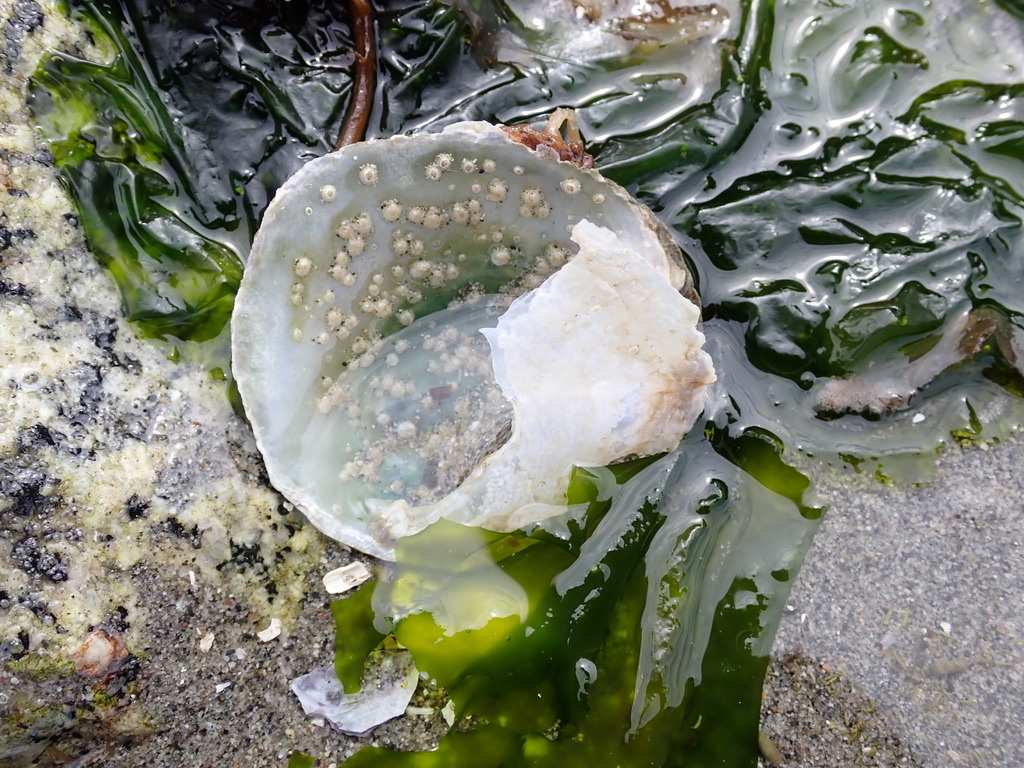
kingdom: Animalia
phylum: Mollusca
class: Bivalvia
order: Pectinida
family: Anomiidae
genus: Pododesmus
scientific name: Pododesmus macrochisma
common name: Alaska jingle
